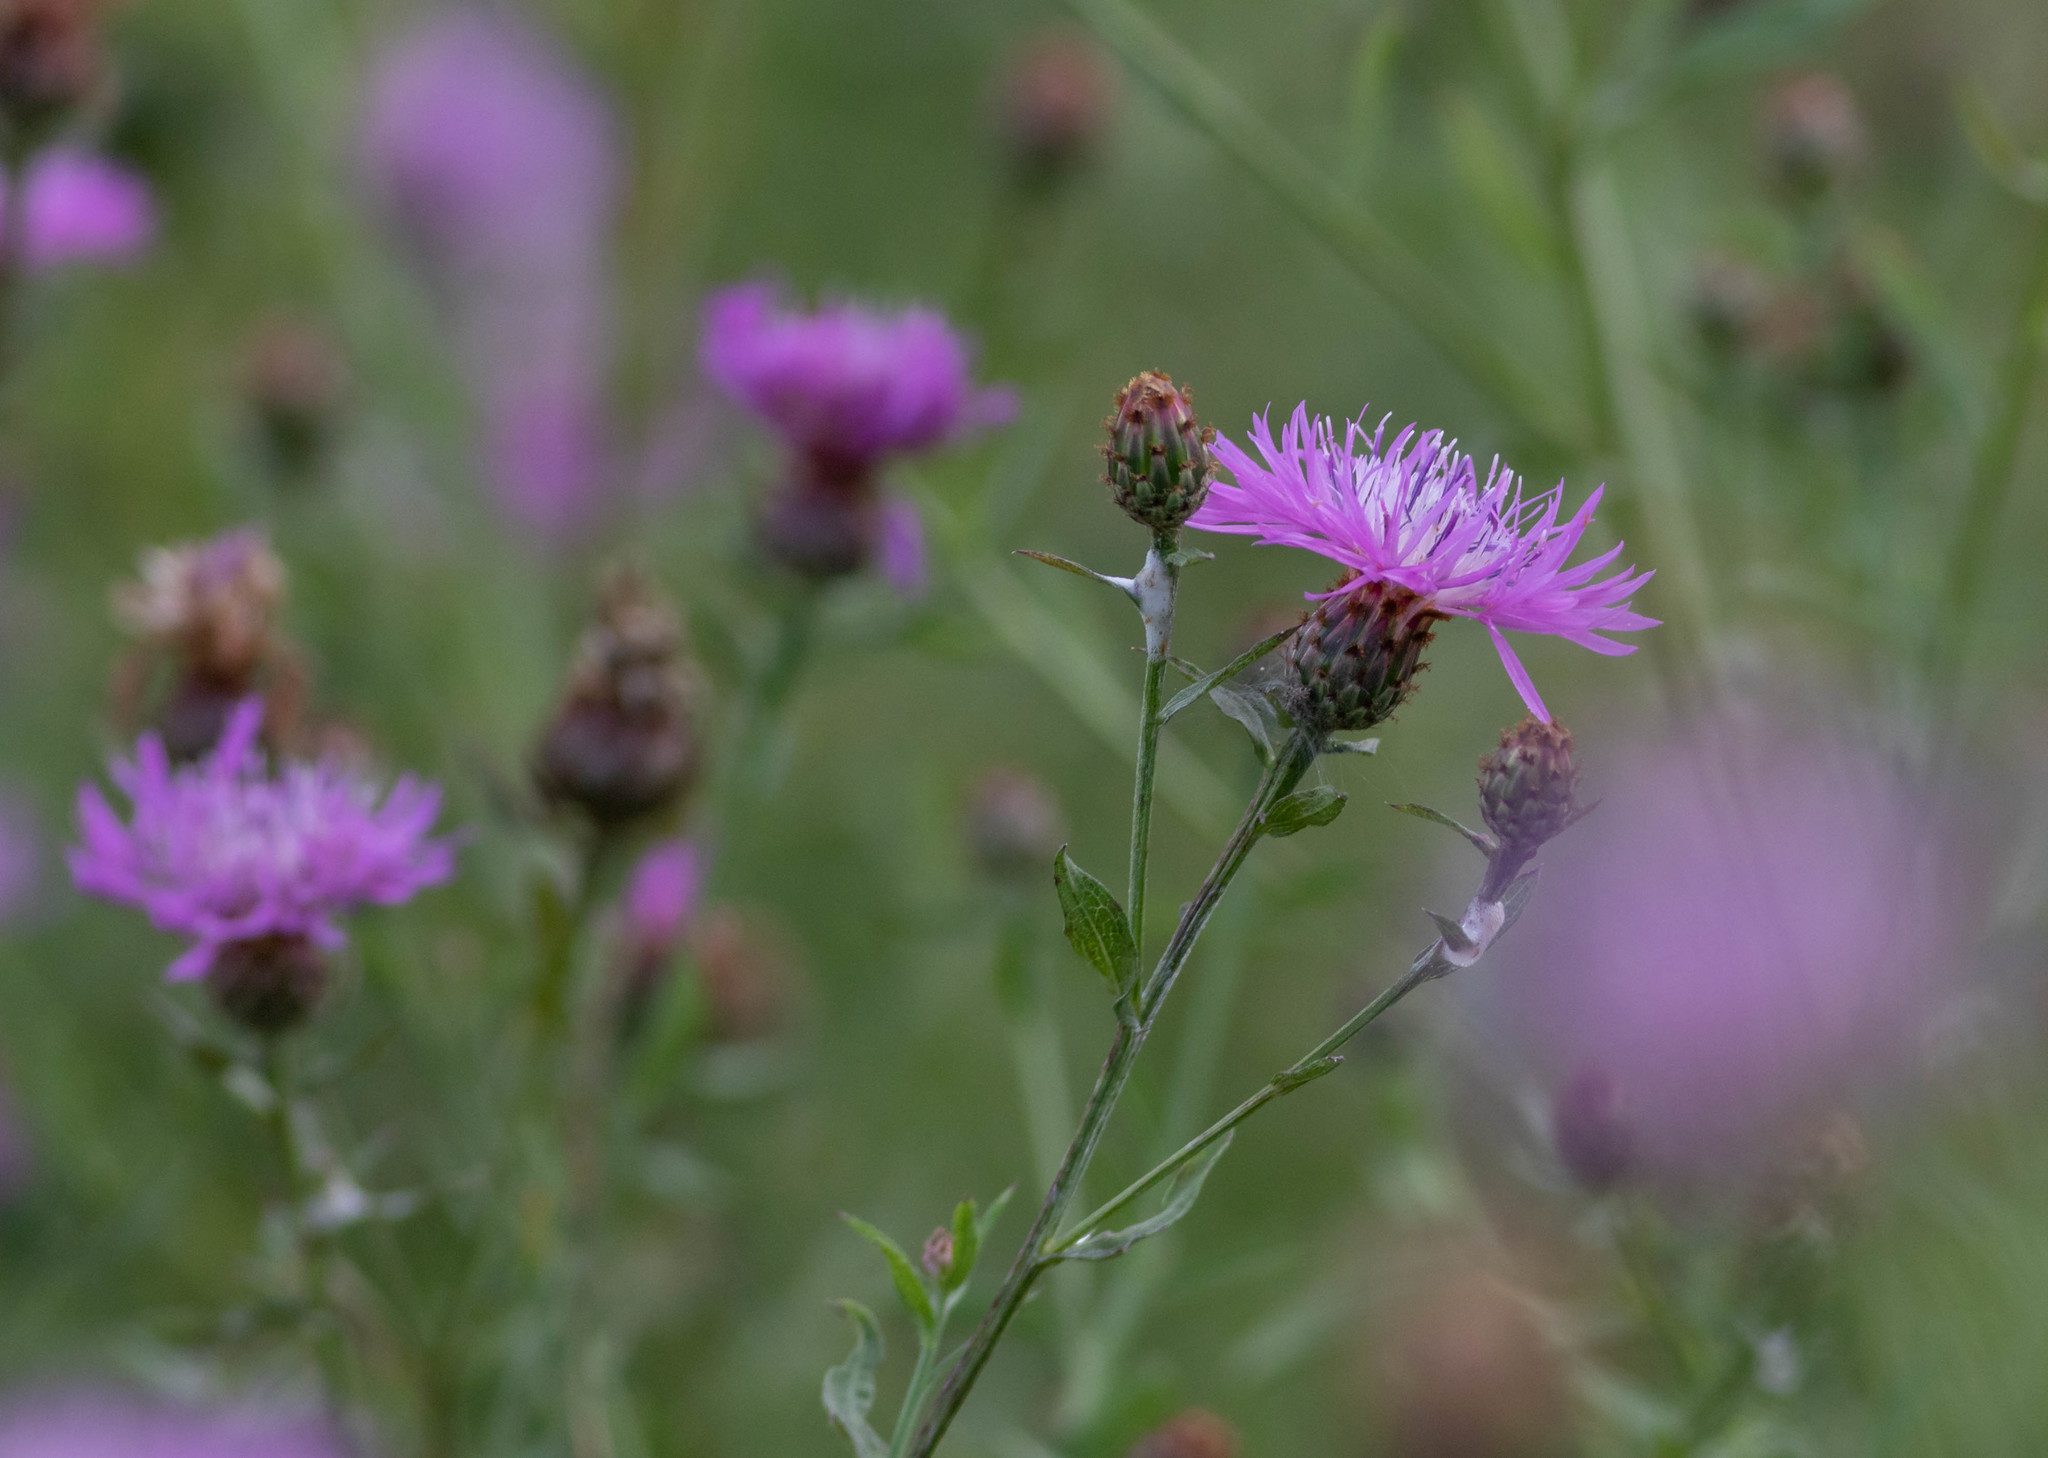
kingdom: Plantae
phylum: Tracheophyta
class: Magnoliopsida
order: Asterales
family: Asteraceae
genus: Centaurea
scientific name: Centaurea nigrescens
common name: Tyrol knapweed
